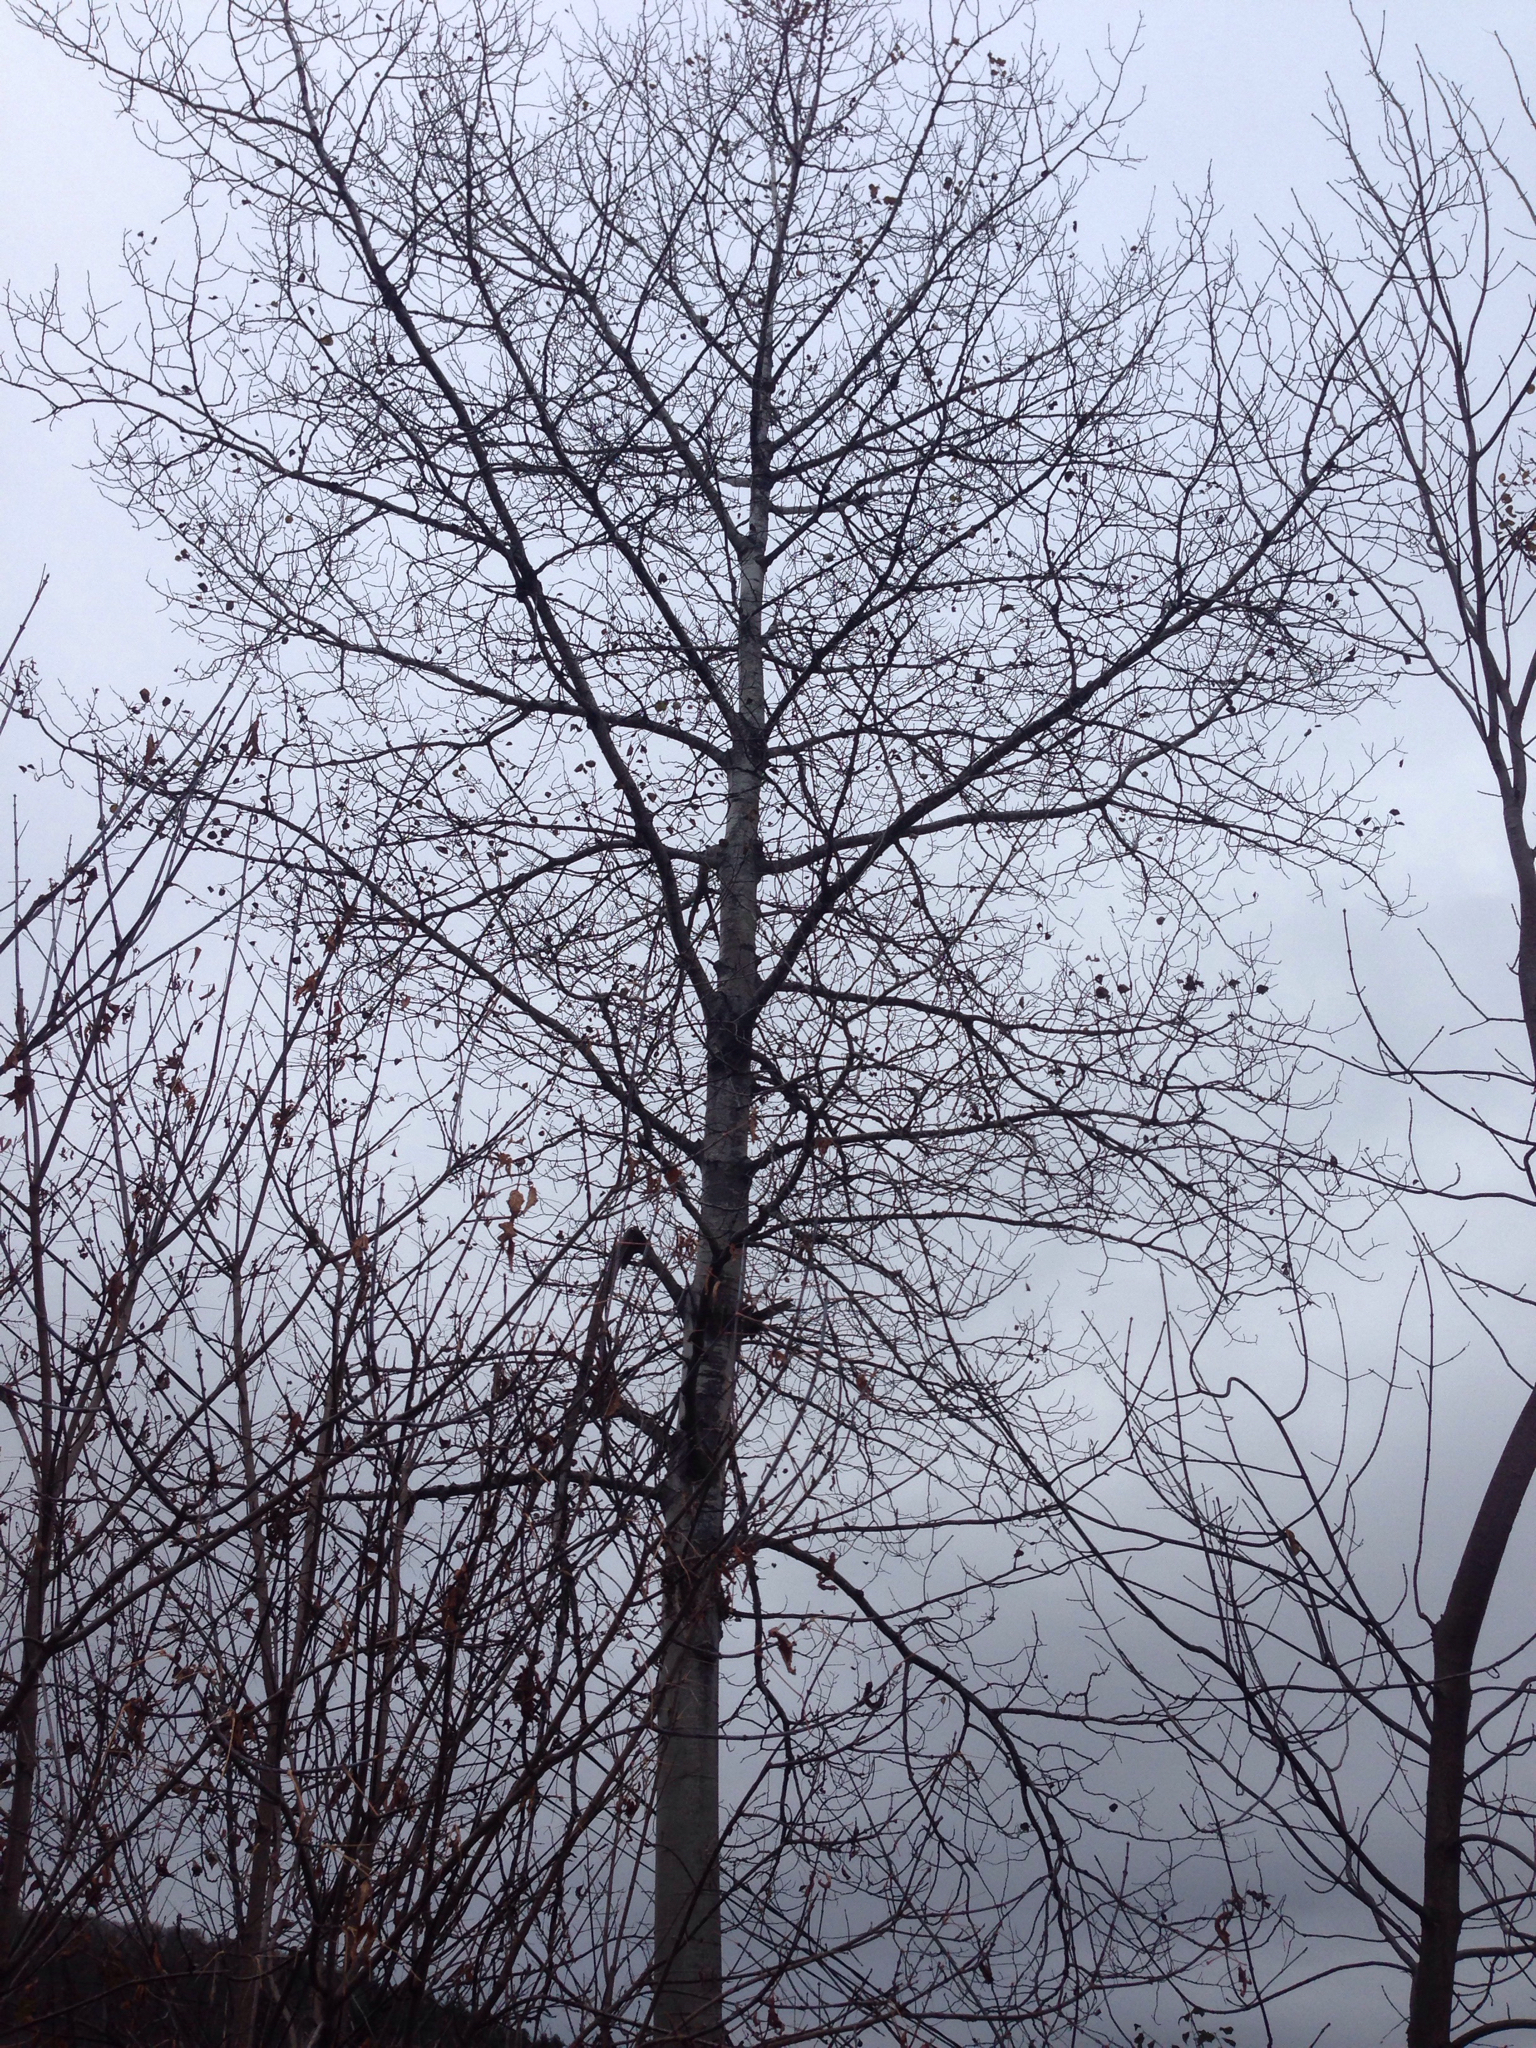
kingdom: Plantae
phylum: Tracheophyta
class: Magnoliopsida
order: Malpighiales
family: Salicaceae
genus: Populus
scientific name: Populus tremuloides
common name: Quaking aspen
